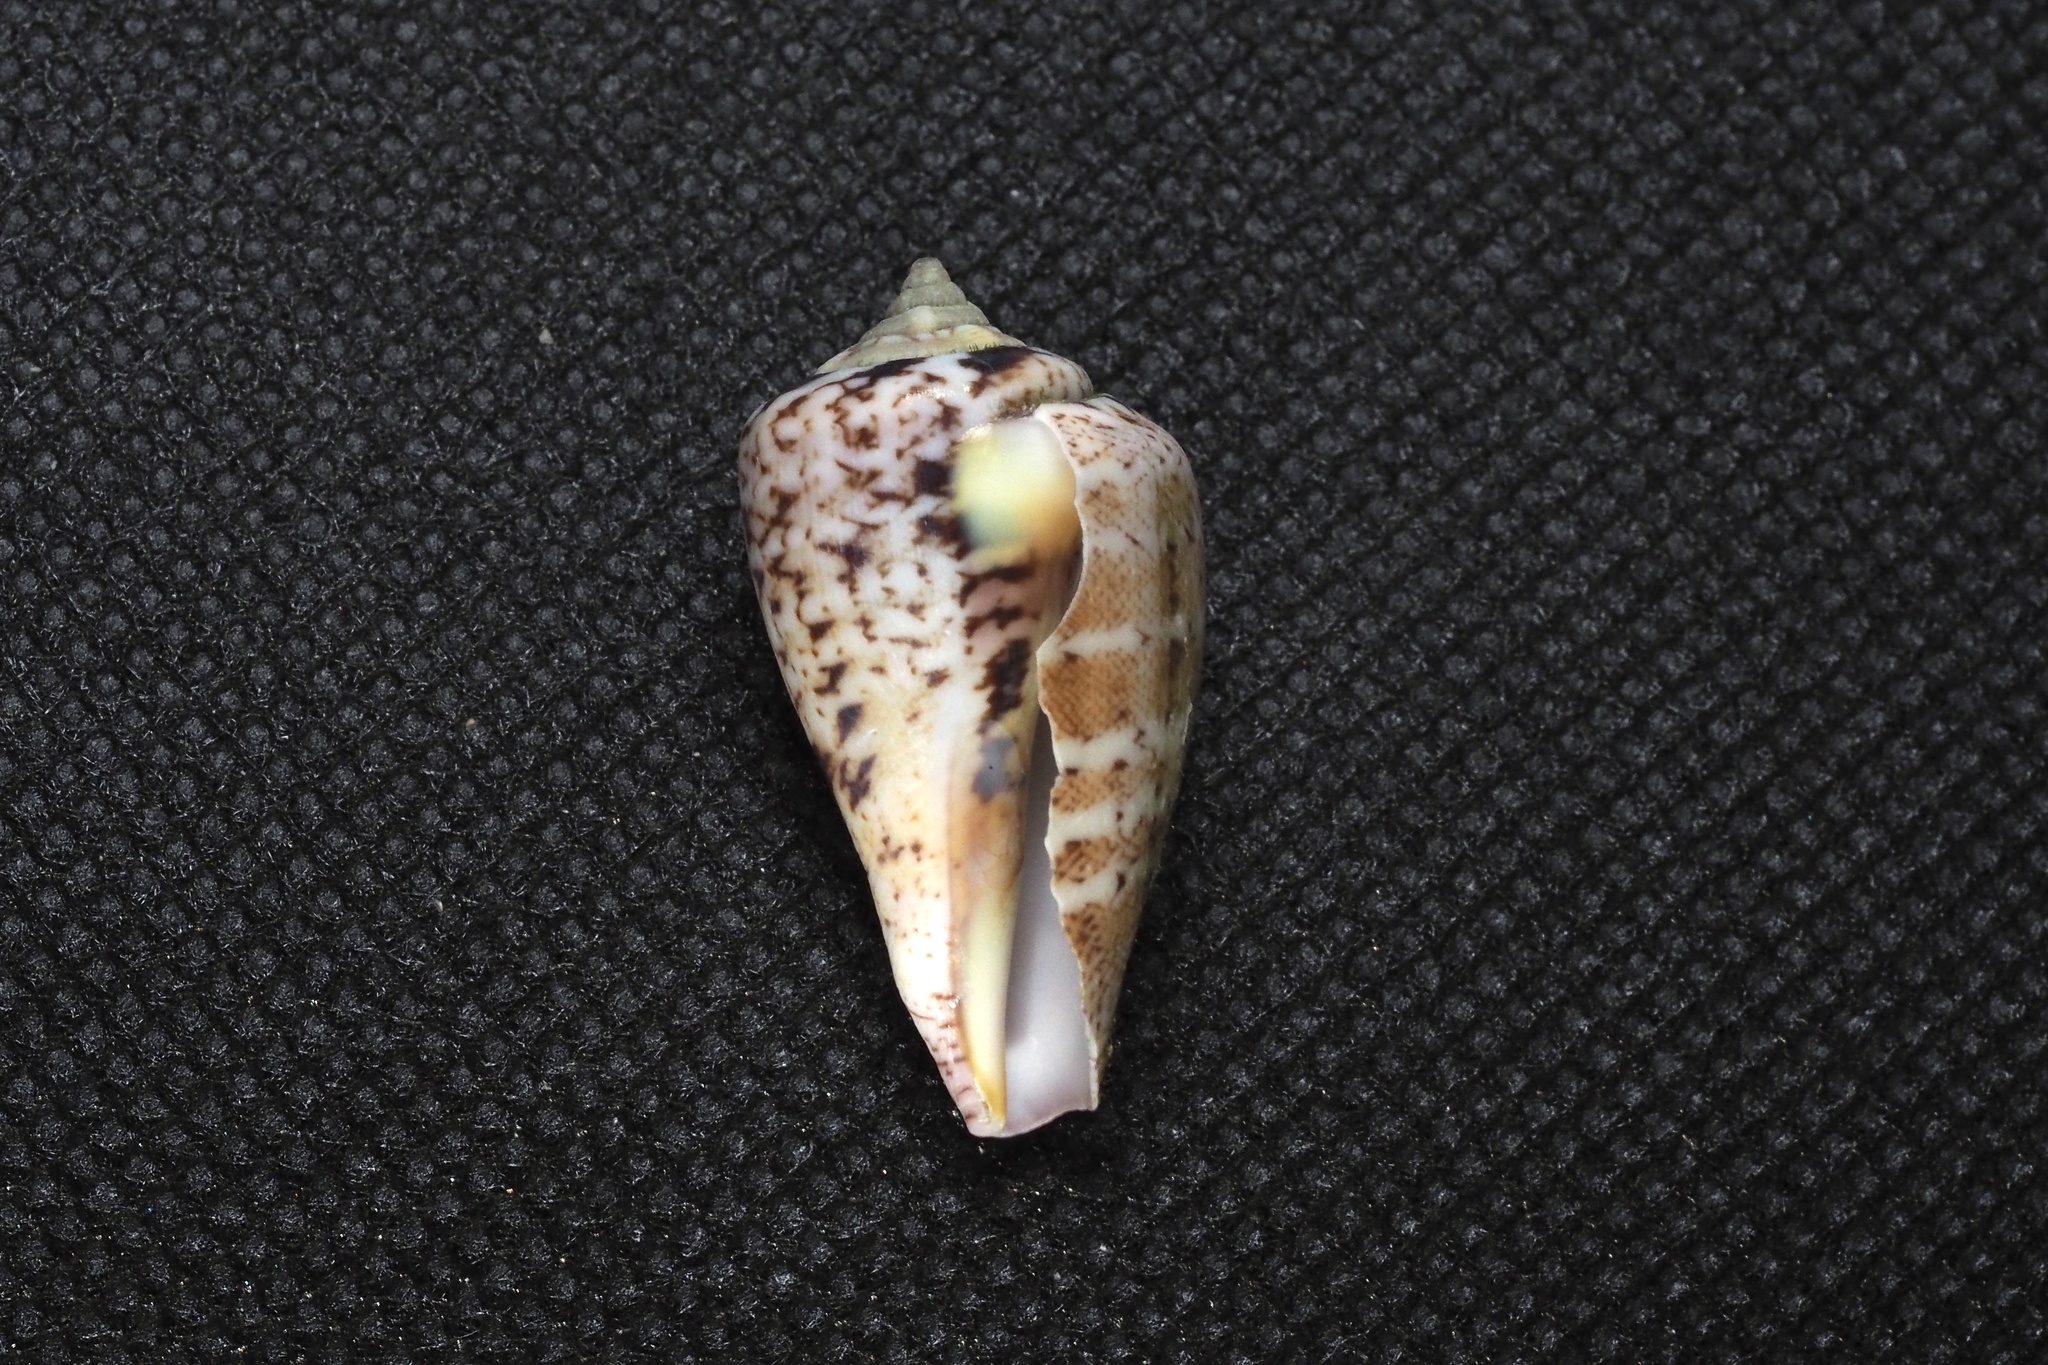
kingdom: Animalia
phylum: Mollusca
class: Gastropoda
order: Littorinimorpha
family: Strombidae
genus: Conomurex
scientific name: Conomurex luhuanus
